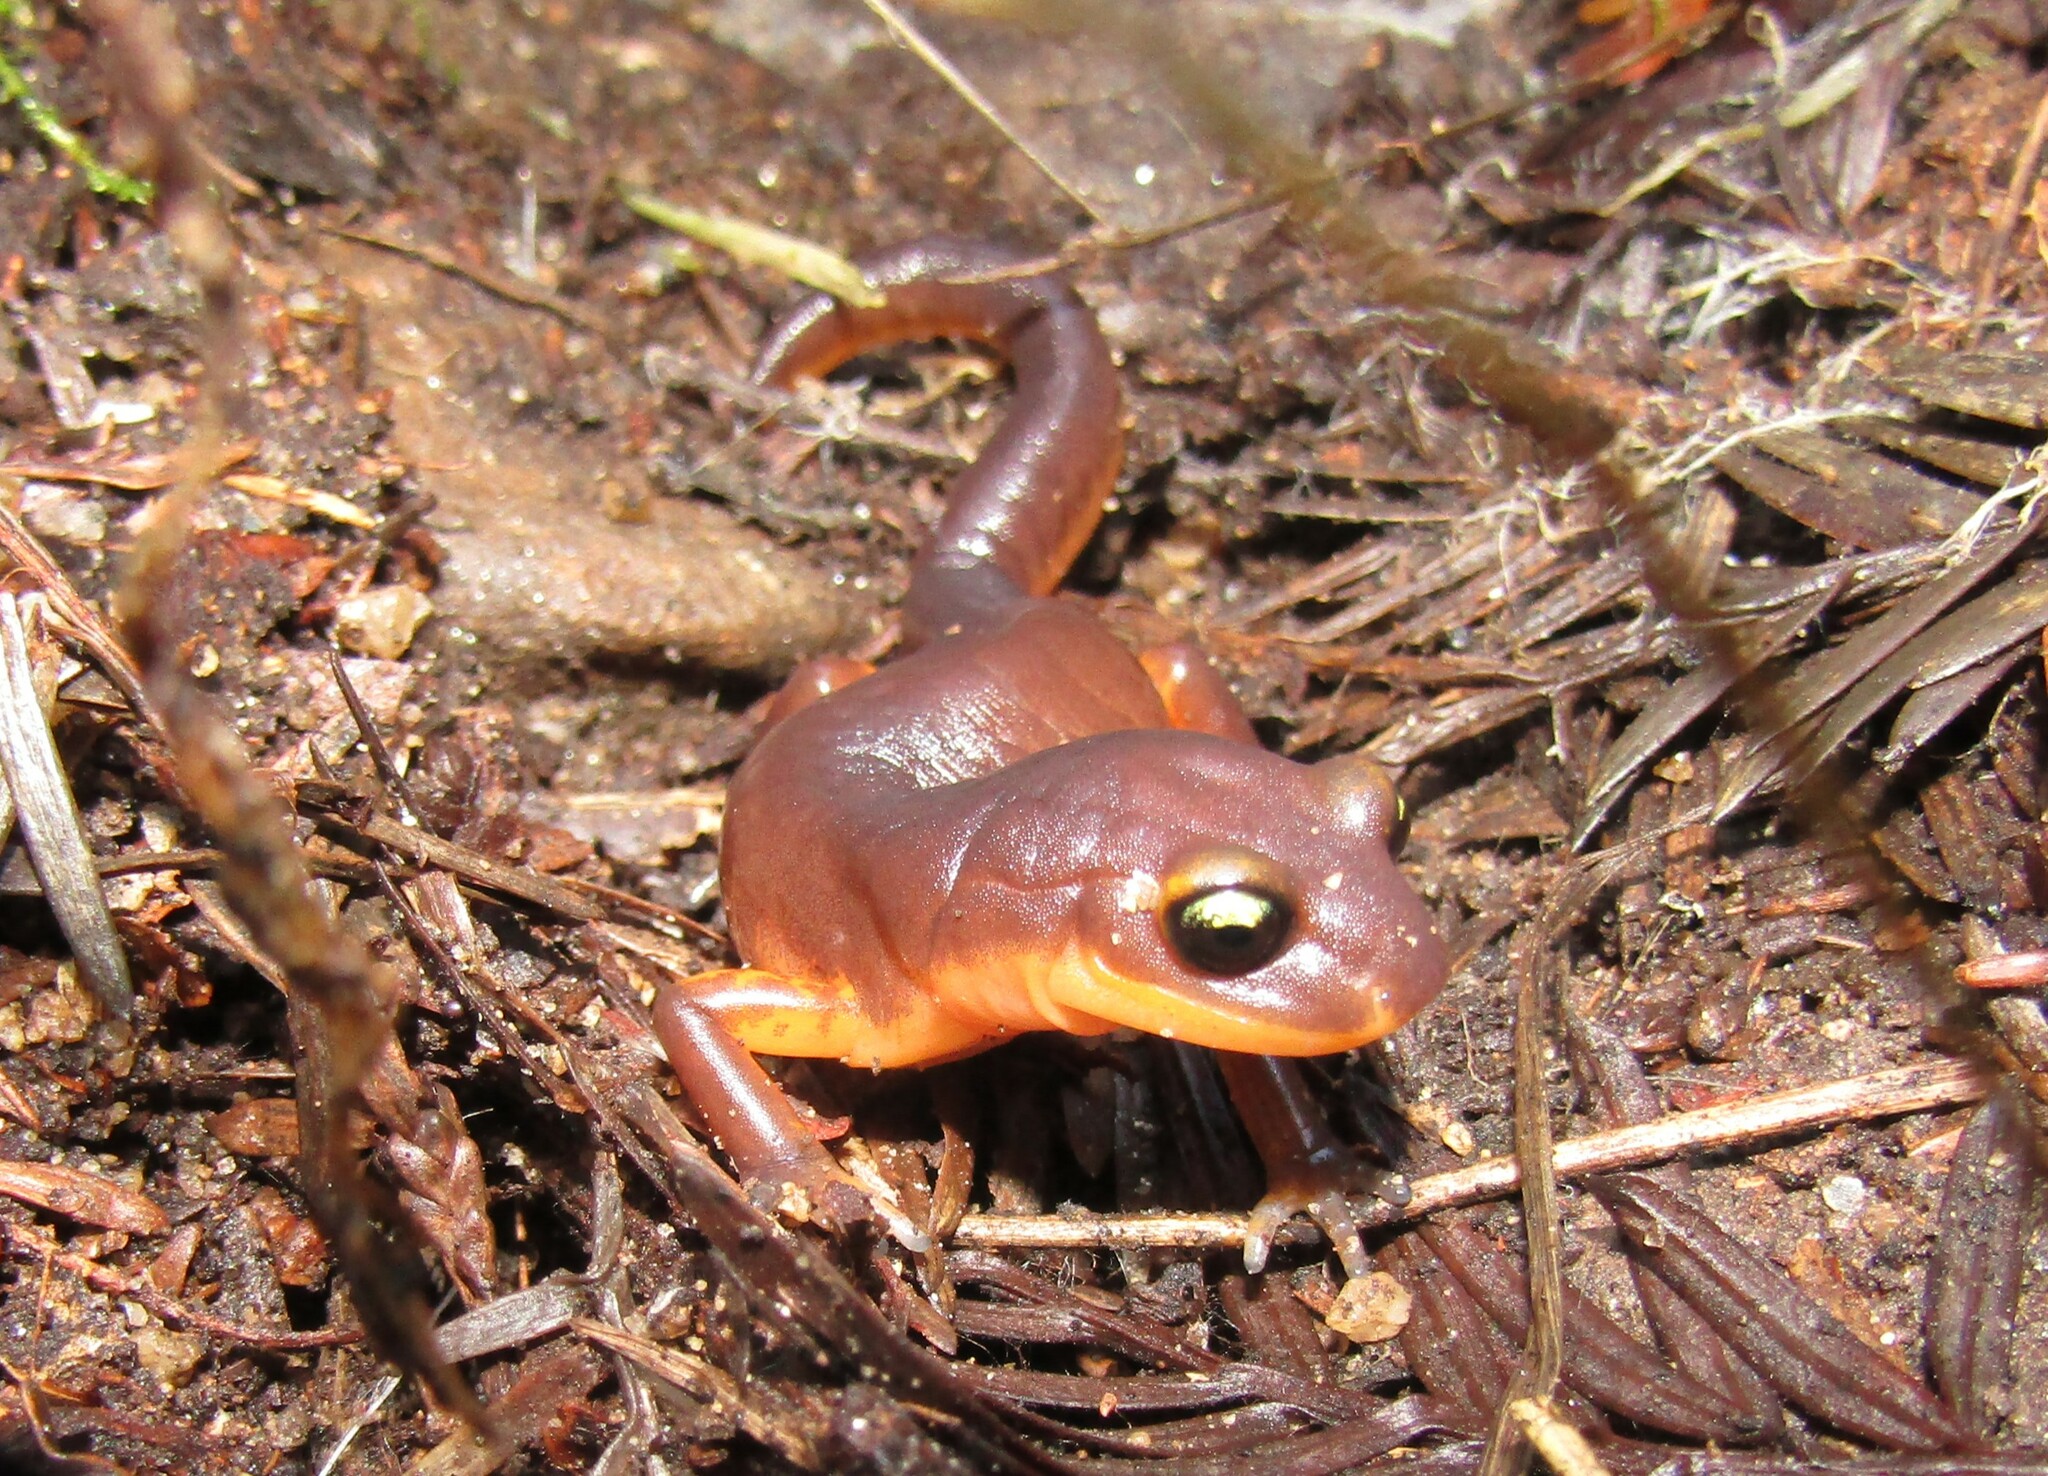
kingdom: Animalia
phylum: Chordata
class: Amphibia
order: Caudata
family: Plethodontidae
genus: Ensatina
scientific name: Ensatina eschscholtzii
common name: Ensatina
